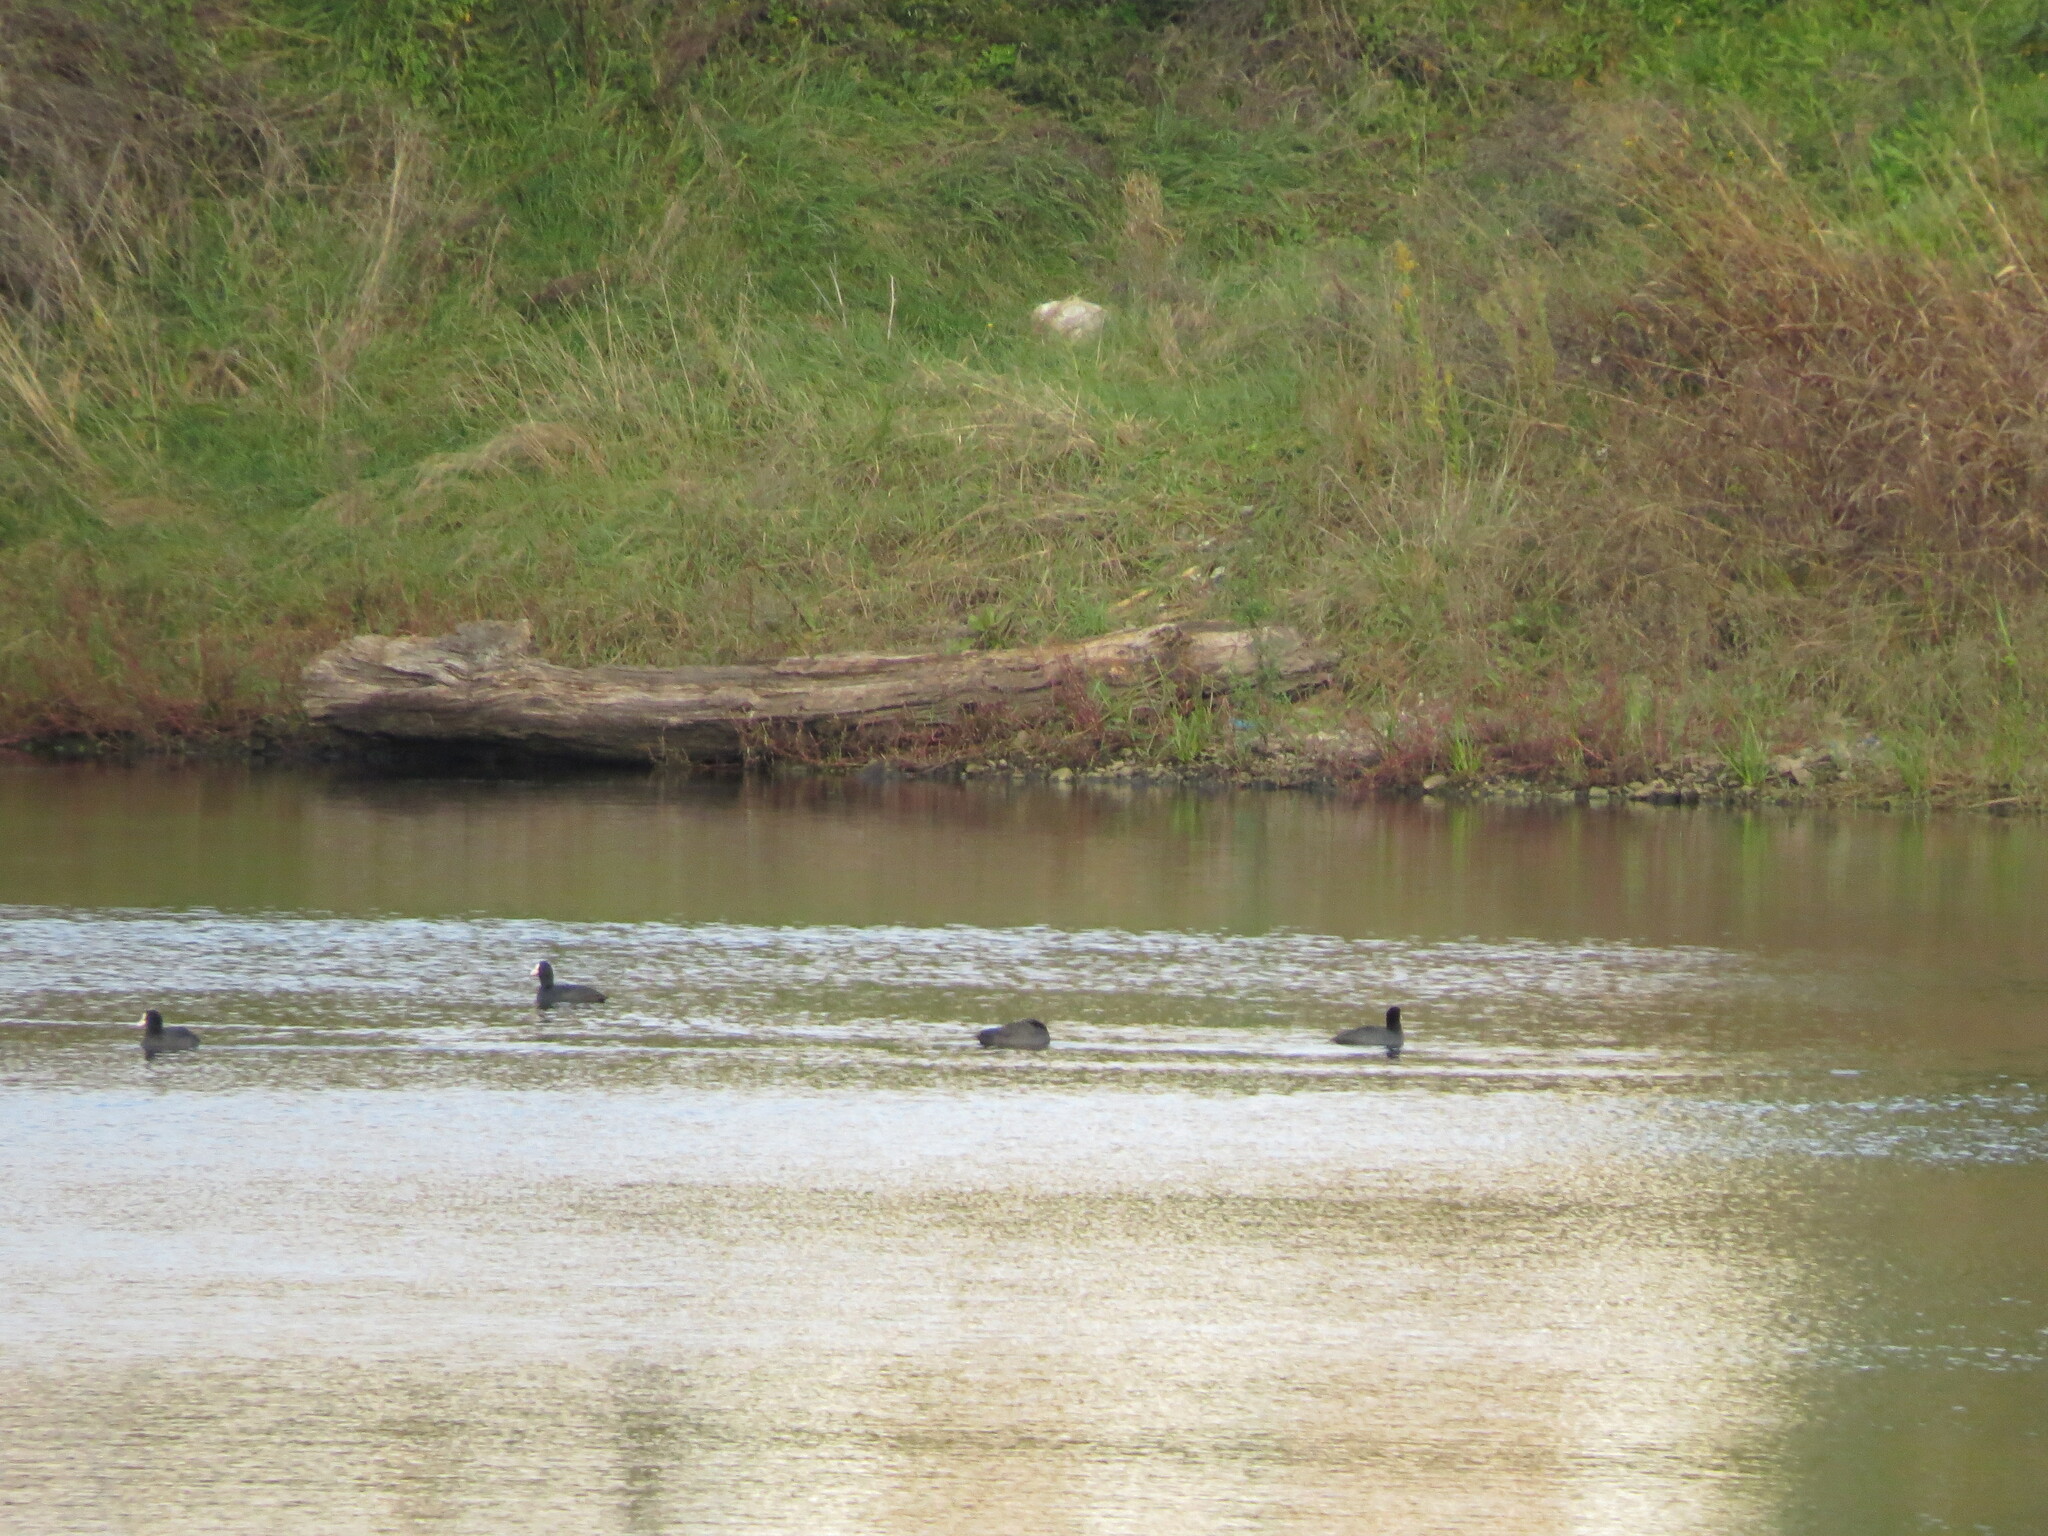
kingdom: Animalia
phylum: Chordata
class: Aves
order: Gruiformes
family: Rallidae
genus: Fulica
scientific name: Fulica atra
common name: Eurasian coot
